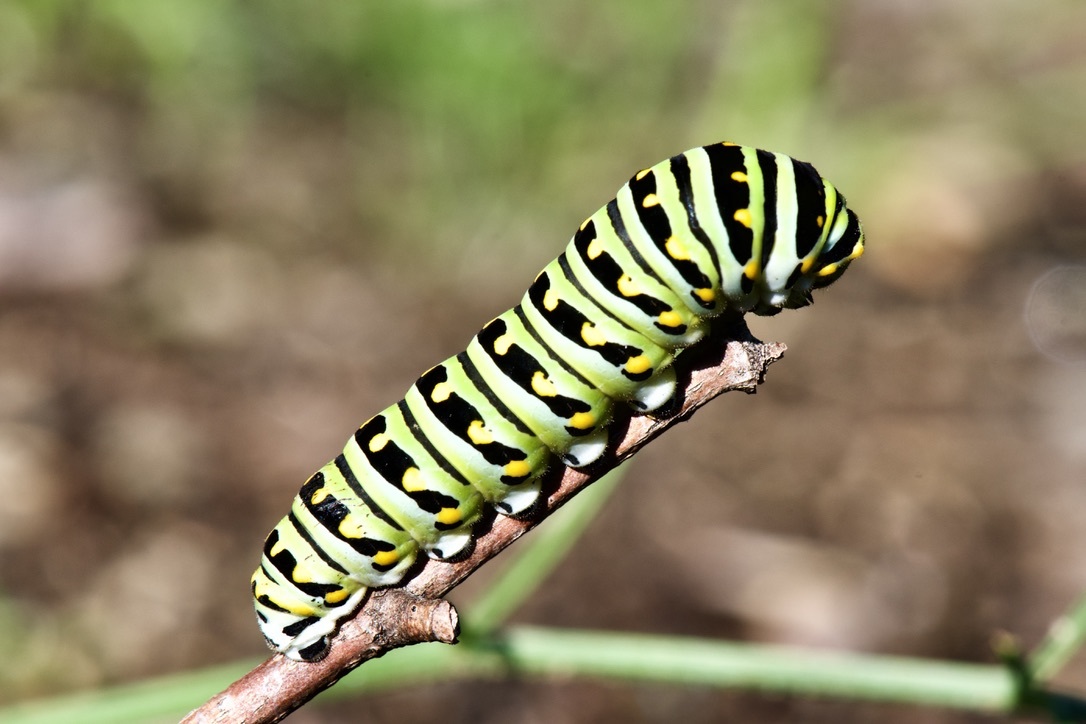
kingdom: Animalia
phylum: Arthropoda
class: Insecta
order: Lepidoptera
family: Papilionidae
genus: Papilio
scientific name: Papilio polyxenes
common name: Black swallowtail
